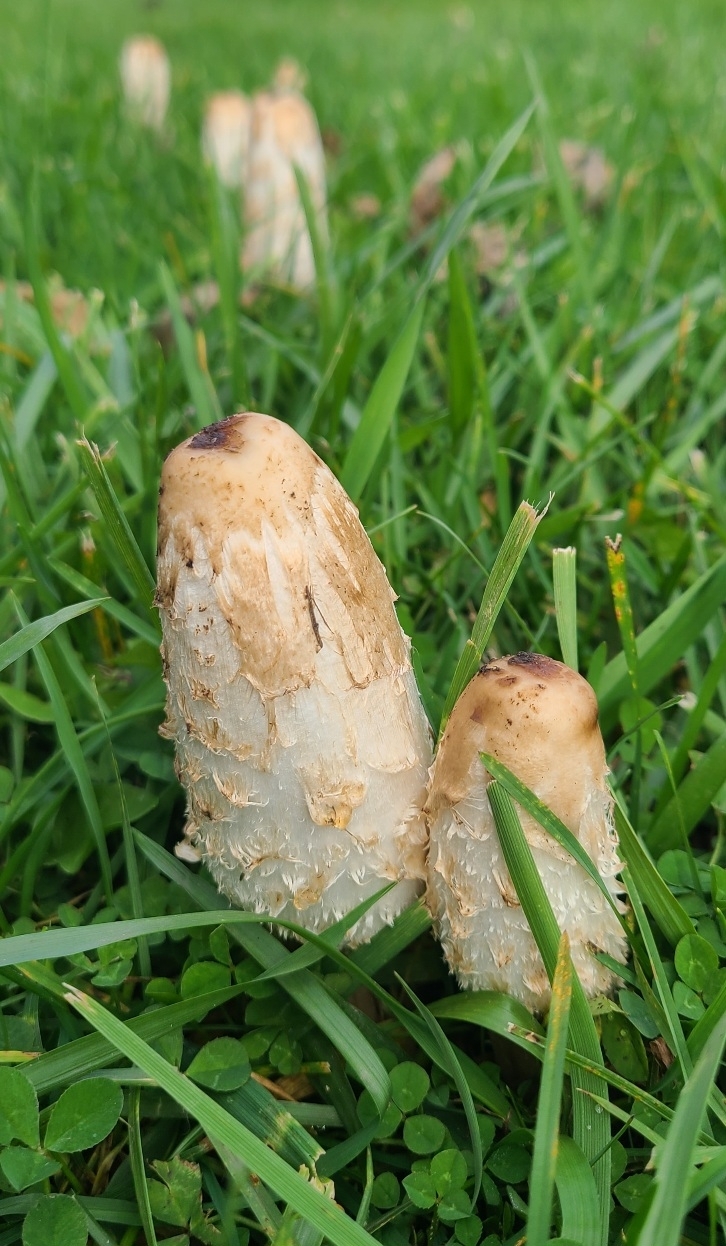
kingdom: Fungi
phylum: Basidiomycota
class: Agaricomycetes
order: Agaricales
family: Agaricaceae
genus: Coprinus
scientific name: Coprinus comatus
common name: Lawyer's wig
